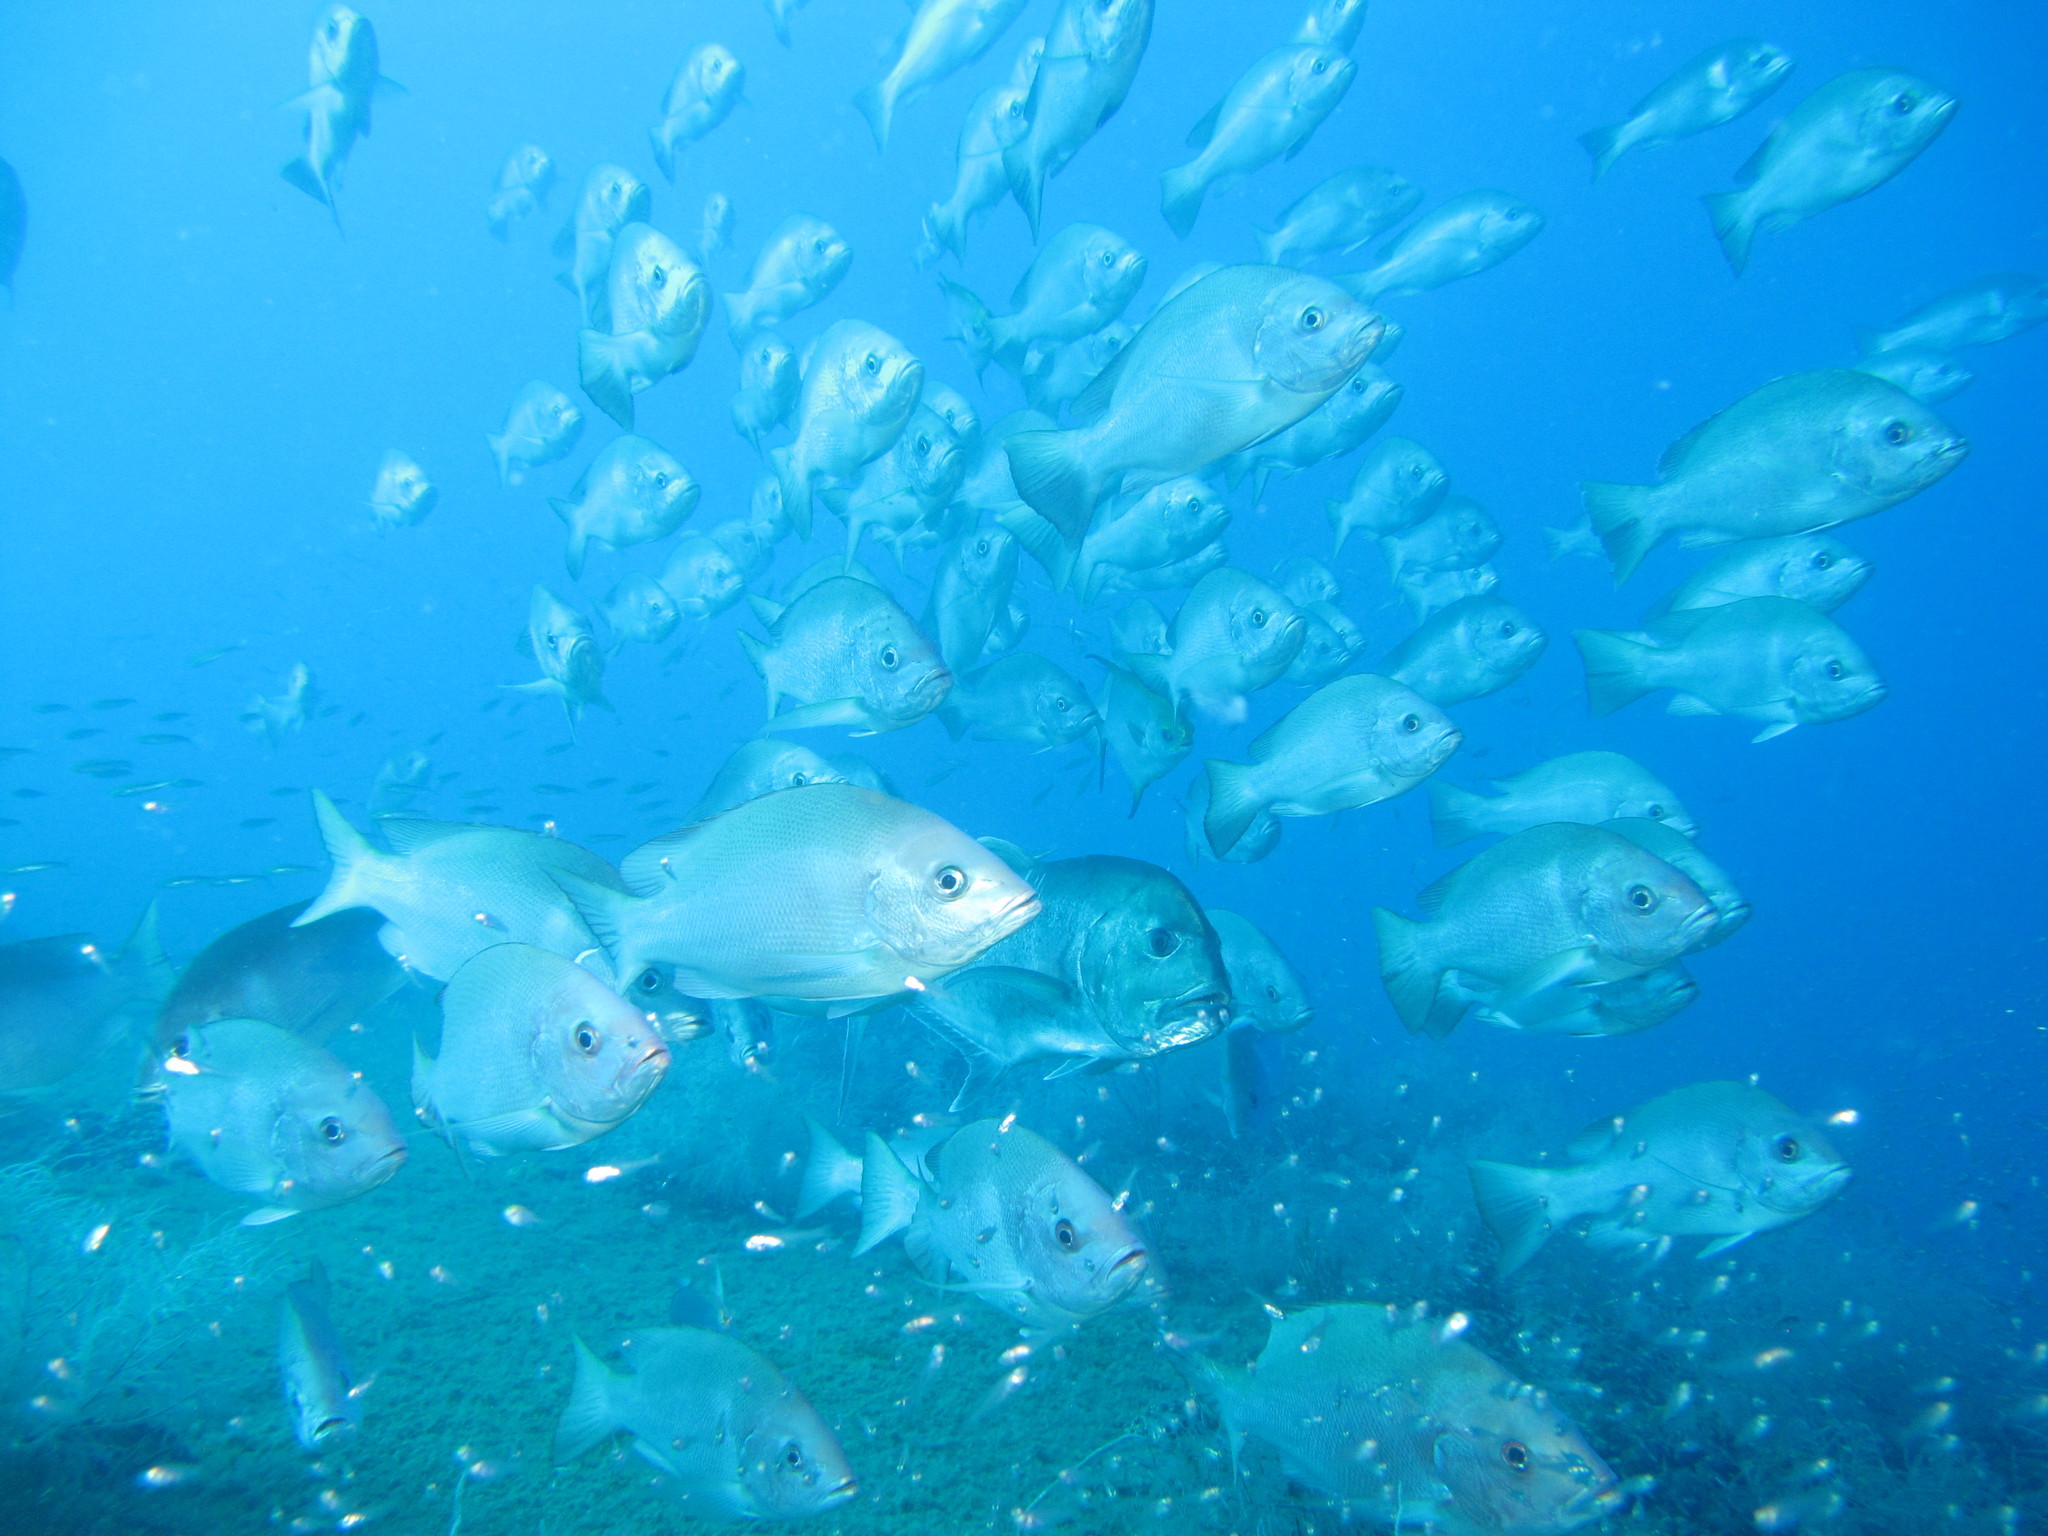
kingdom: Animalia
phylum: Chordata
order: Perciformes
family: Carangidae
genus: Caranx
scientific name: Caranx ignobilis
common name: Giant trevally
